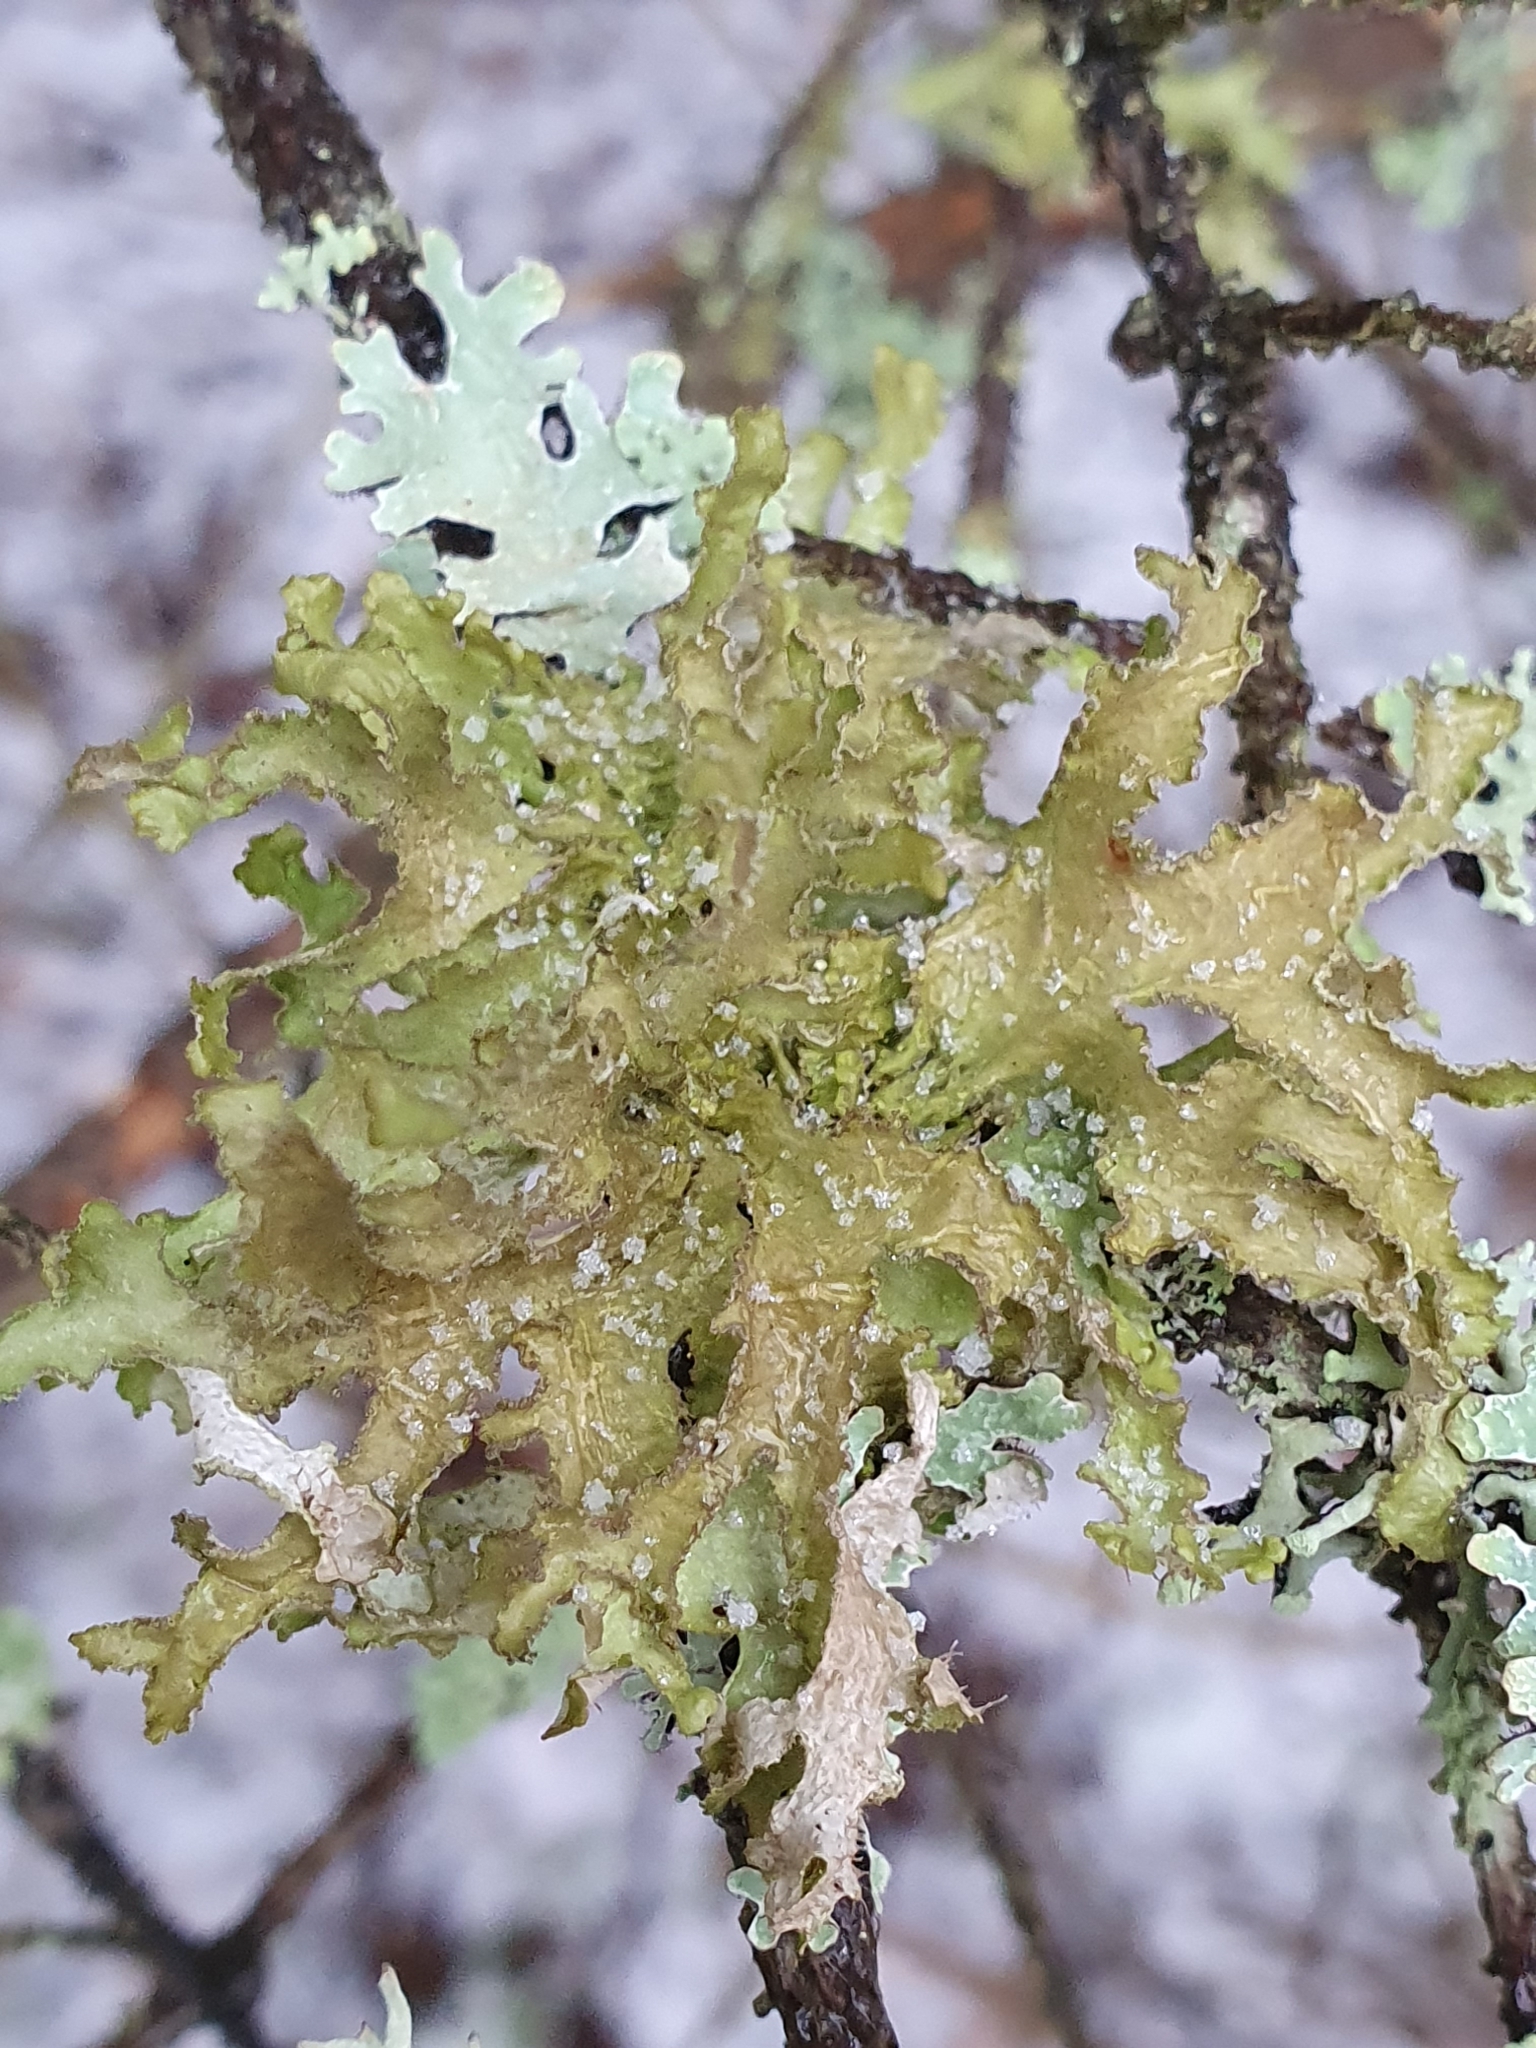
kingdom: Fungi
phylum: Ascomycota
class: Lecanoromycetes
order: Lecanorales
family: Parmeliaceae
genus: Nephromopsis
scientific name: Nephromopsis chlorophylla
